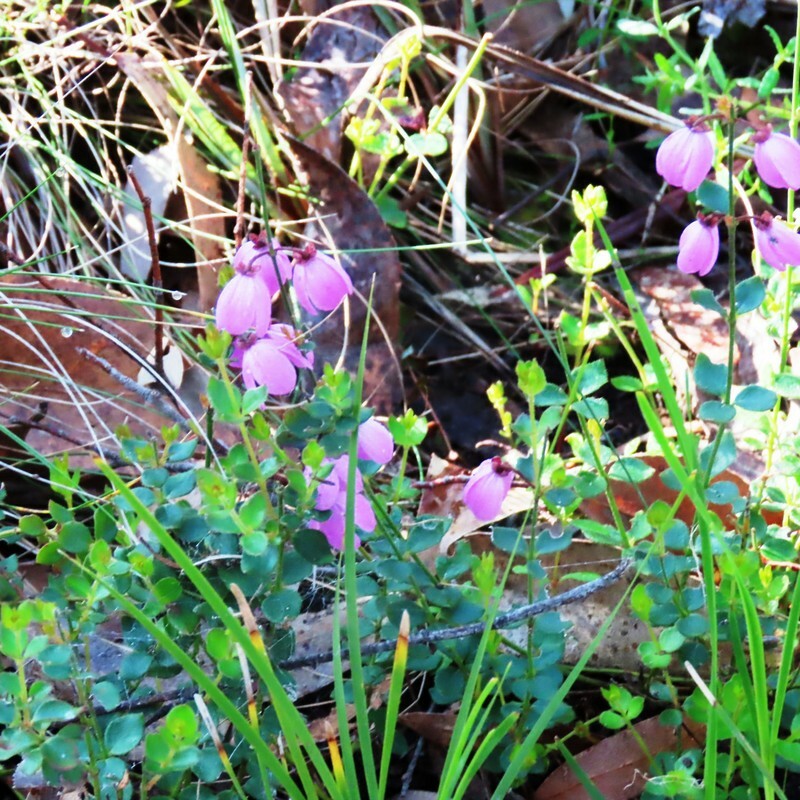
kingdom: Plantae
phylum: Tracheophyta
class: Magnoliopsida
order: Oxalidales
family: Elaeocarpaceae
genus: Tetratheca
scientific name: Tetratheca ciliata
